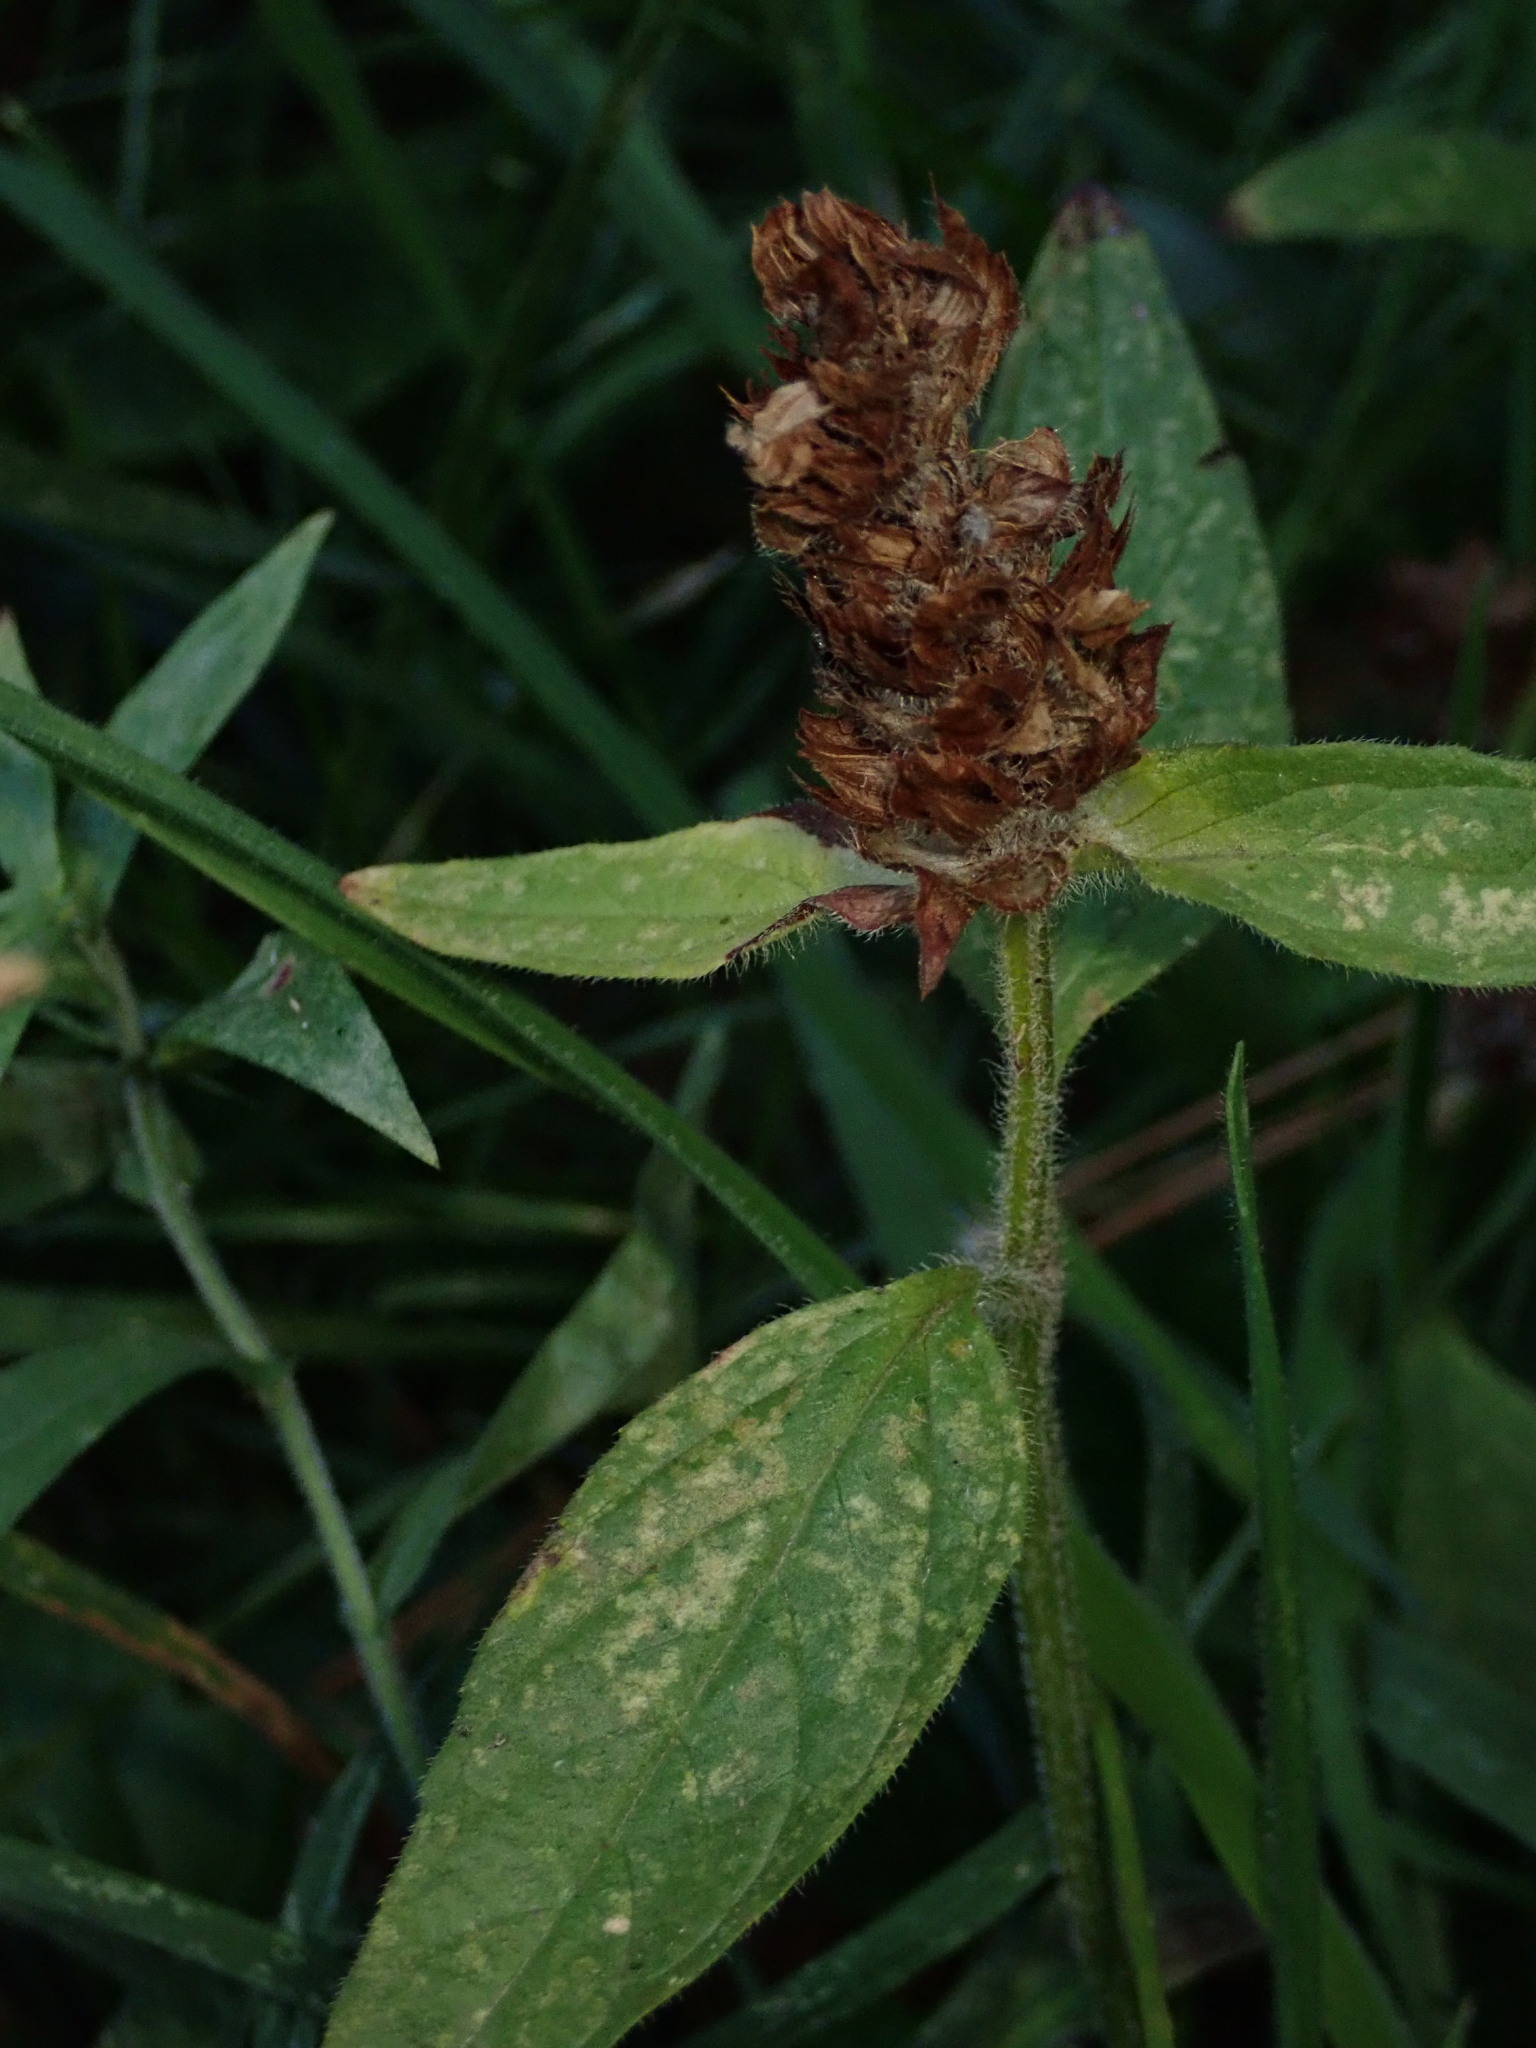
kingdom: Plantae
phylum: Tracheophyta
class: Magnoliopsida
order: Lamiales
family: Lamiaceae
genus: Prunella
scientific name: Prunella vulgaris
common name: Heal-all
